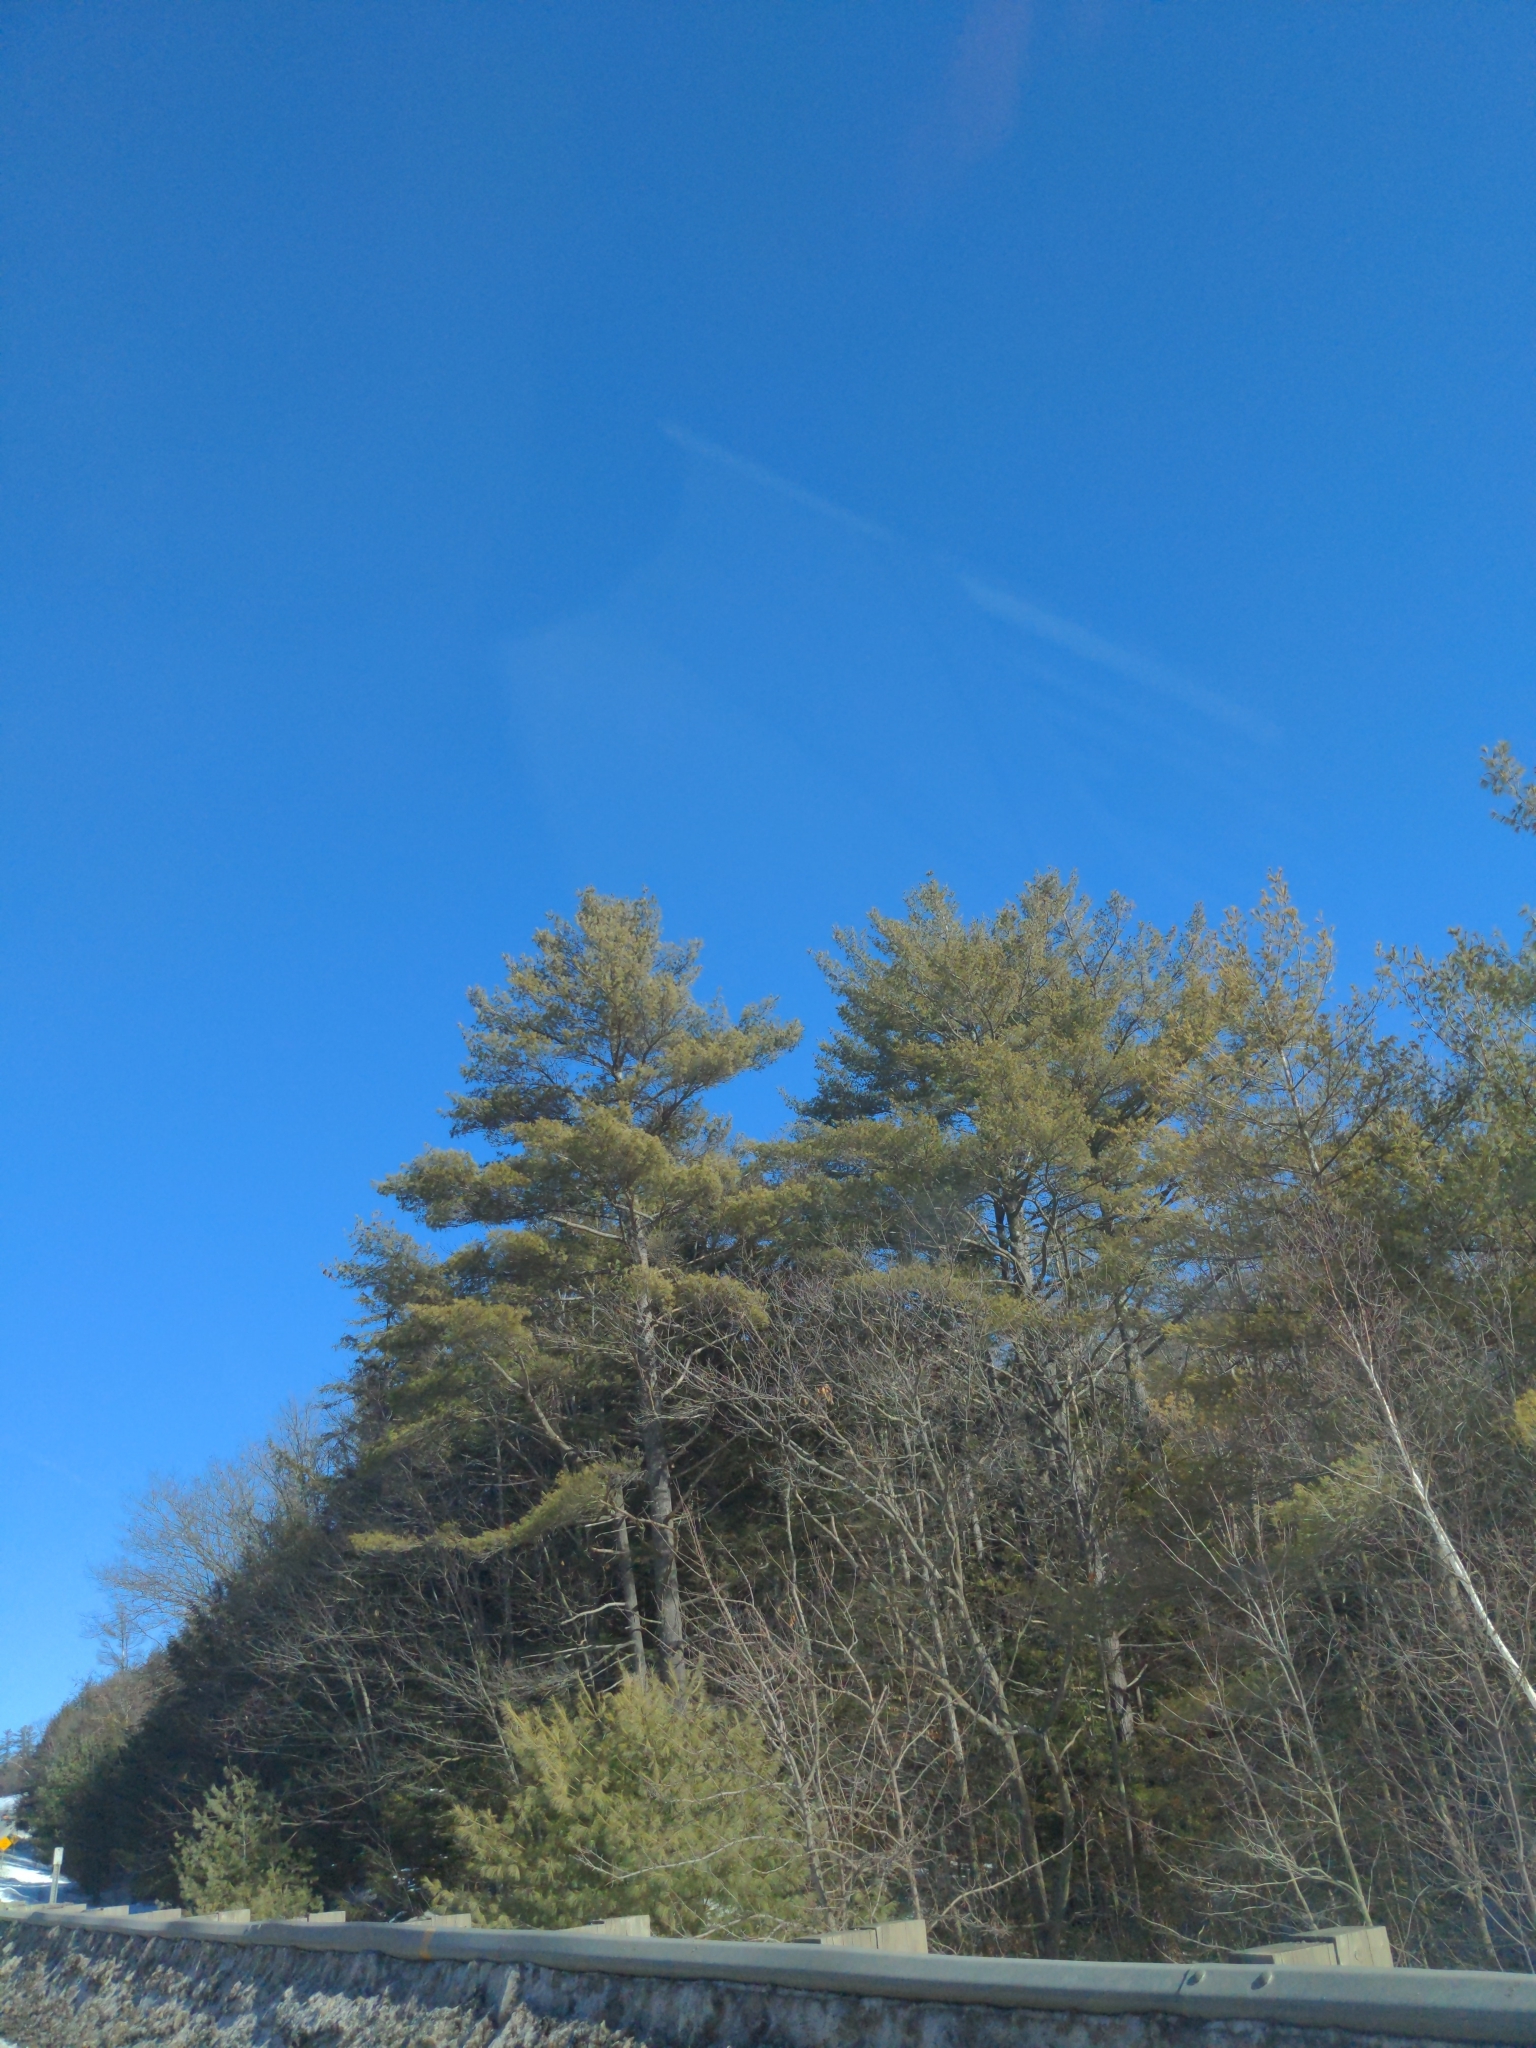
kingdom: Plantae
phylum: Tracheophyta
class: Pinopsida
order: Pinales
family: Pinaceae
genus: Pinus
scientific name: Pinus strobus
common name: Weymouth pine
